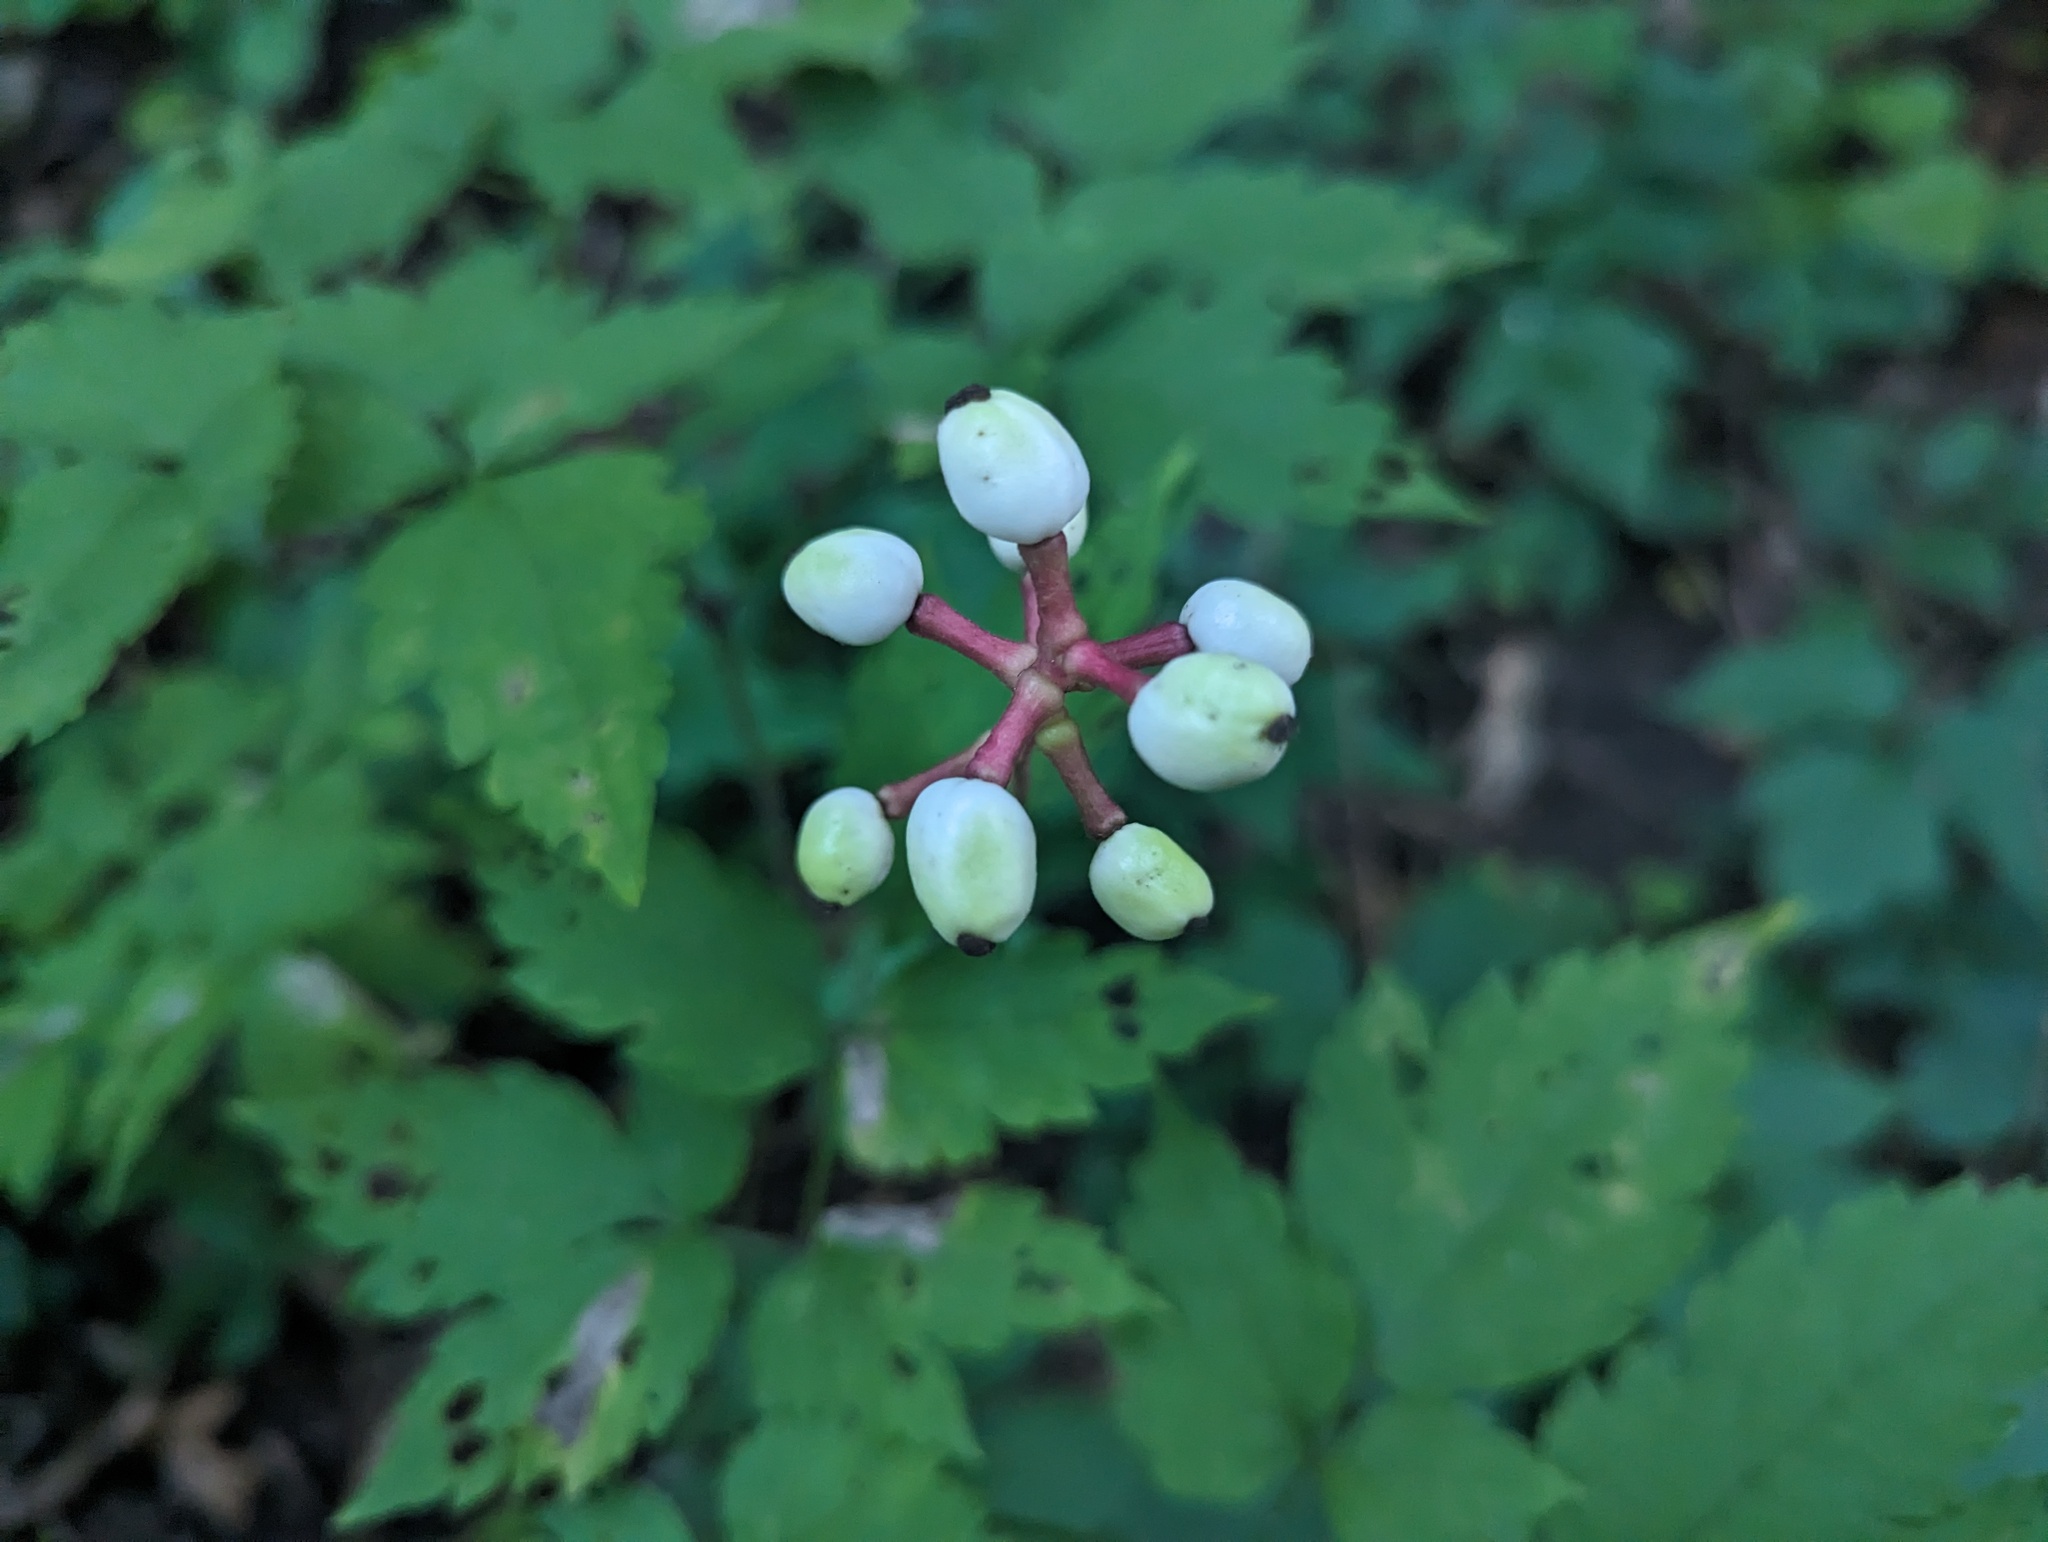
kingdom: Plantae
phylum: Tracheophyta
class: Magnoliopsida
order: Ranunculales
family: Ranunculaceae
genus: Actaea
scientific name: Actaea pachypoda
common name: Doll's-eyes
